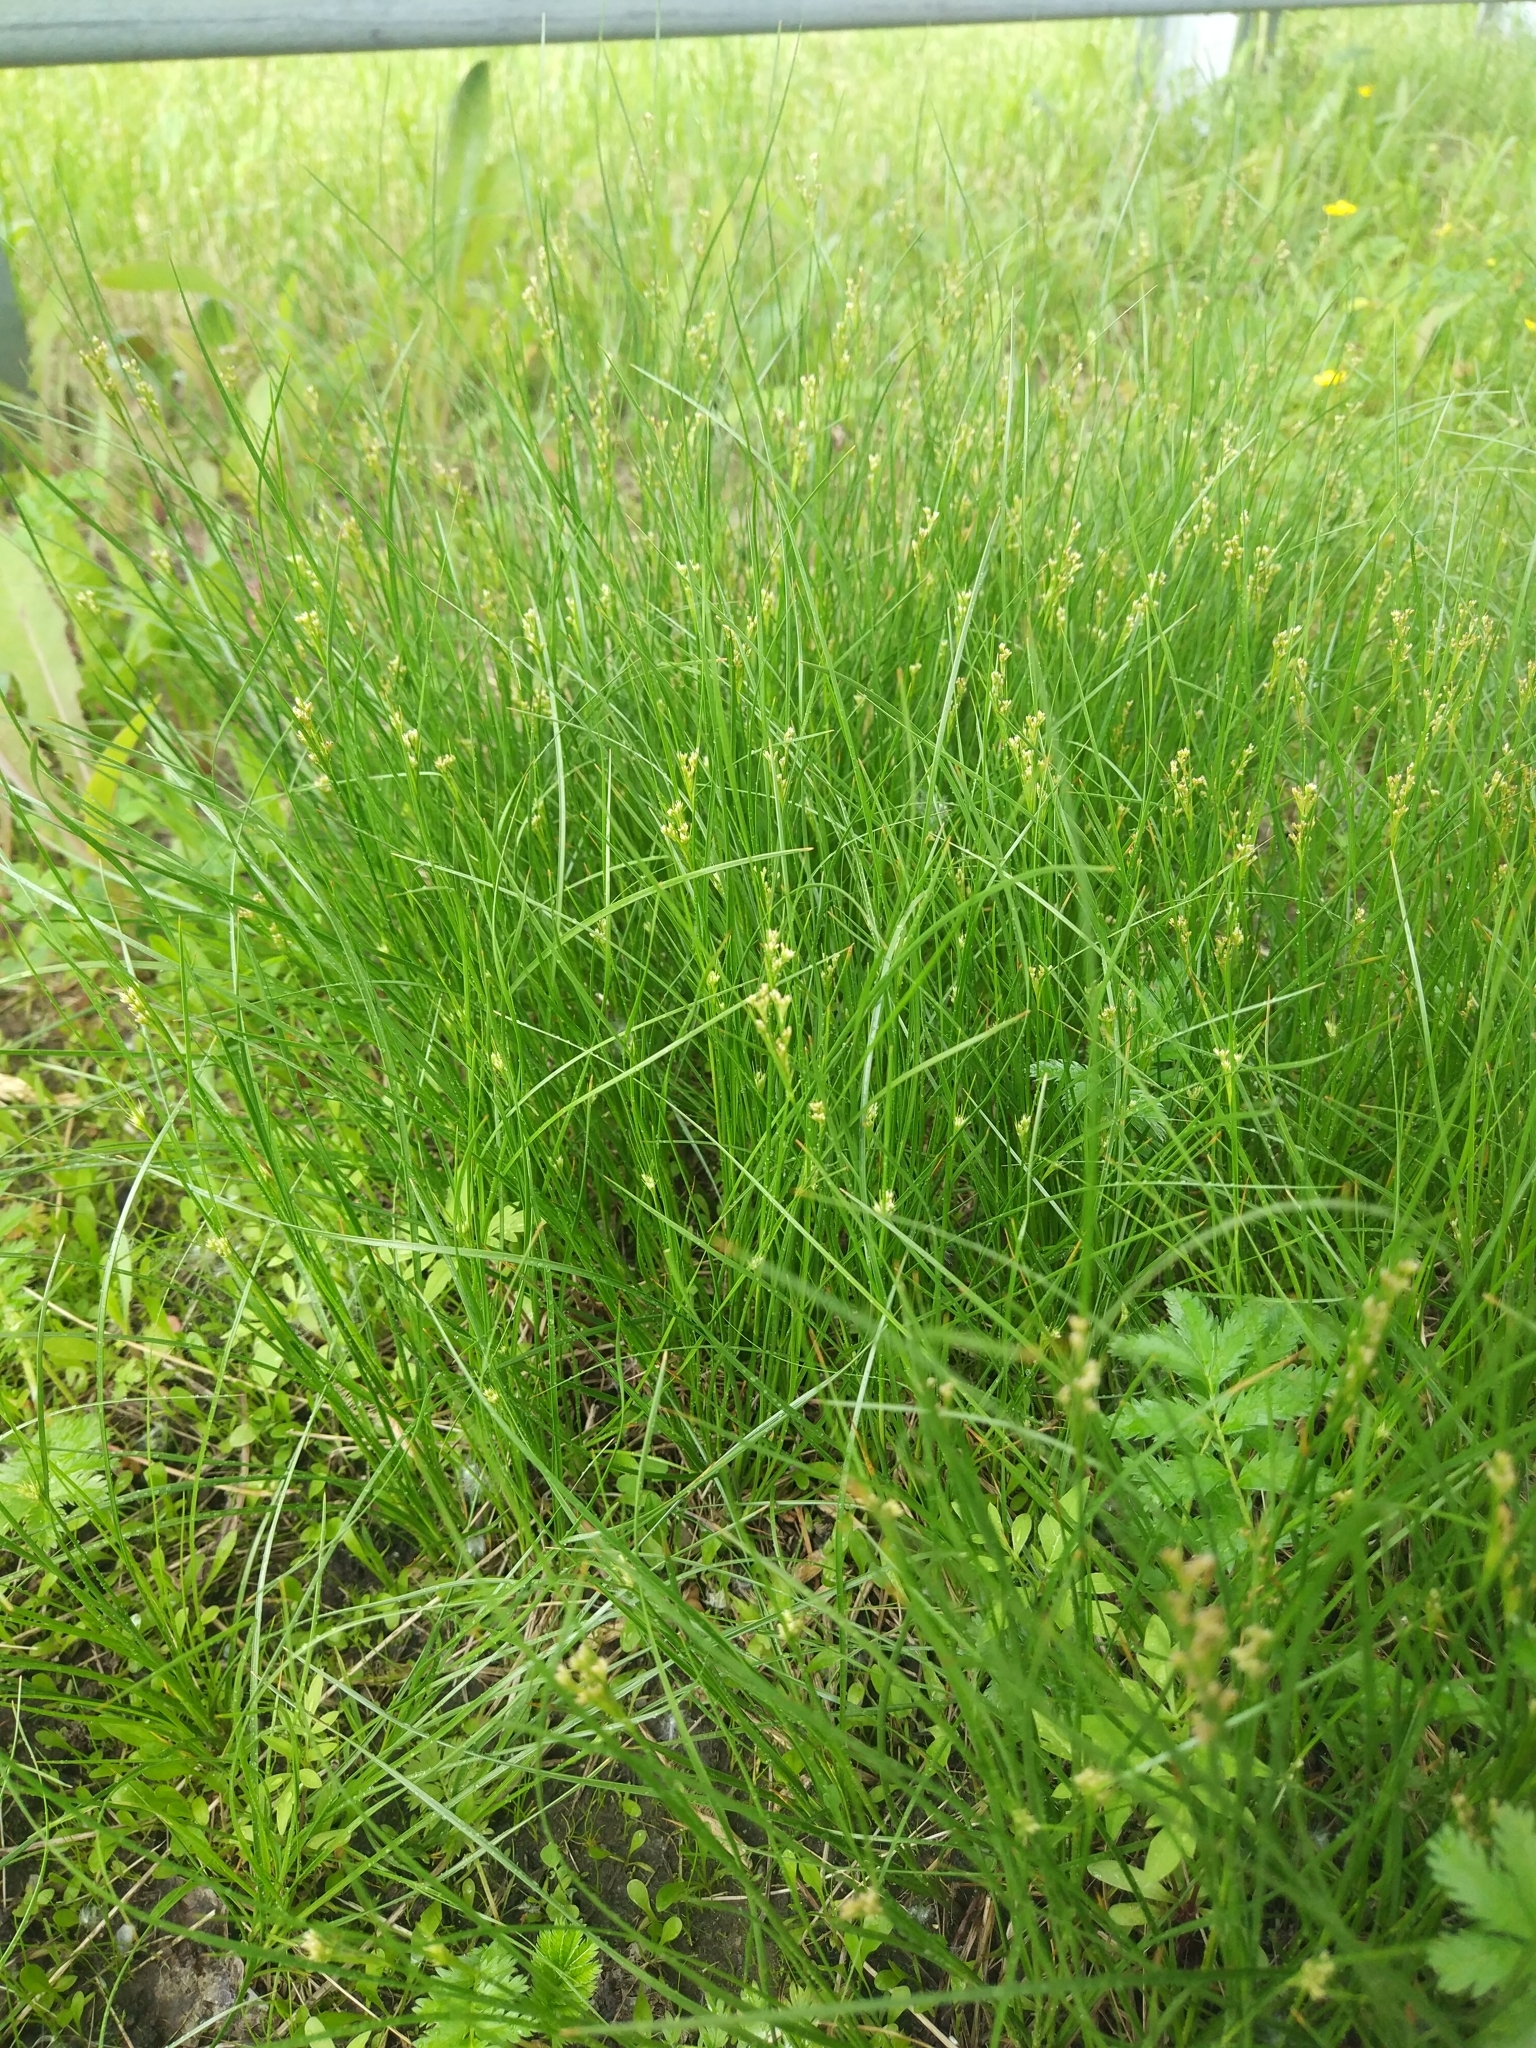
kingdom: Plantae
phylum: Tracheophyta
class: Liliopsida
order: Poales
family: Juncaceae
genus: Juncus
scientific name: Juncus compressus
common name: Round-fruited rush
